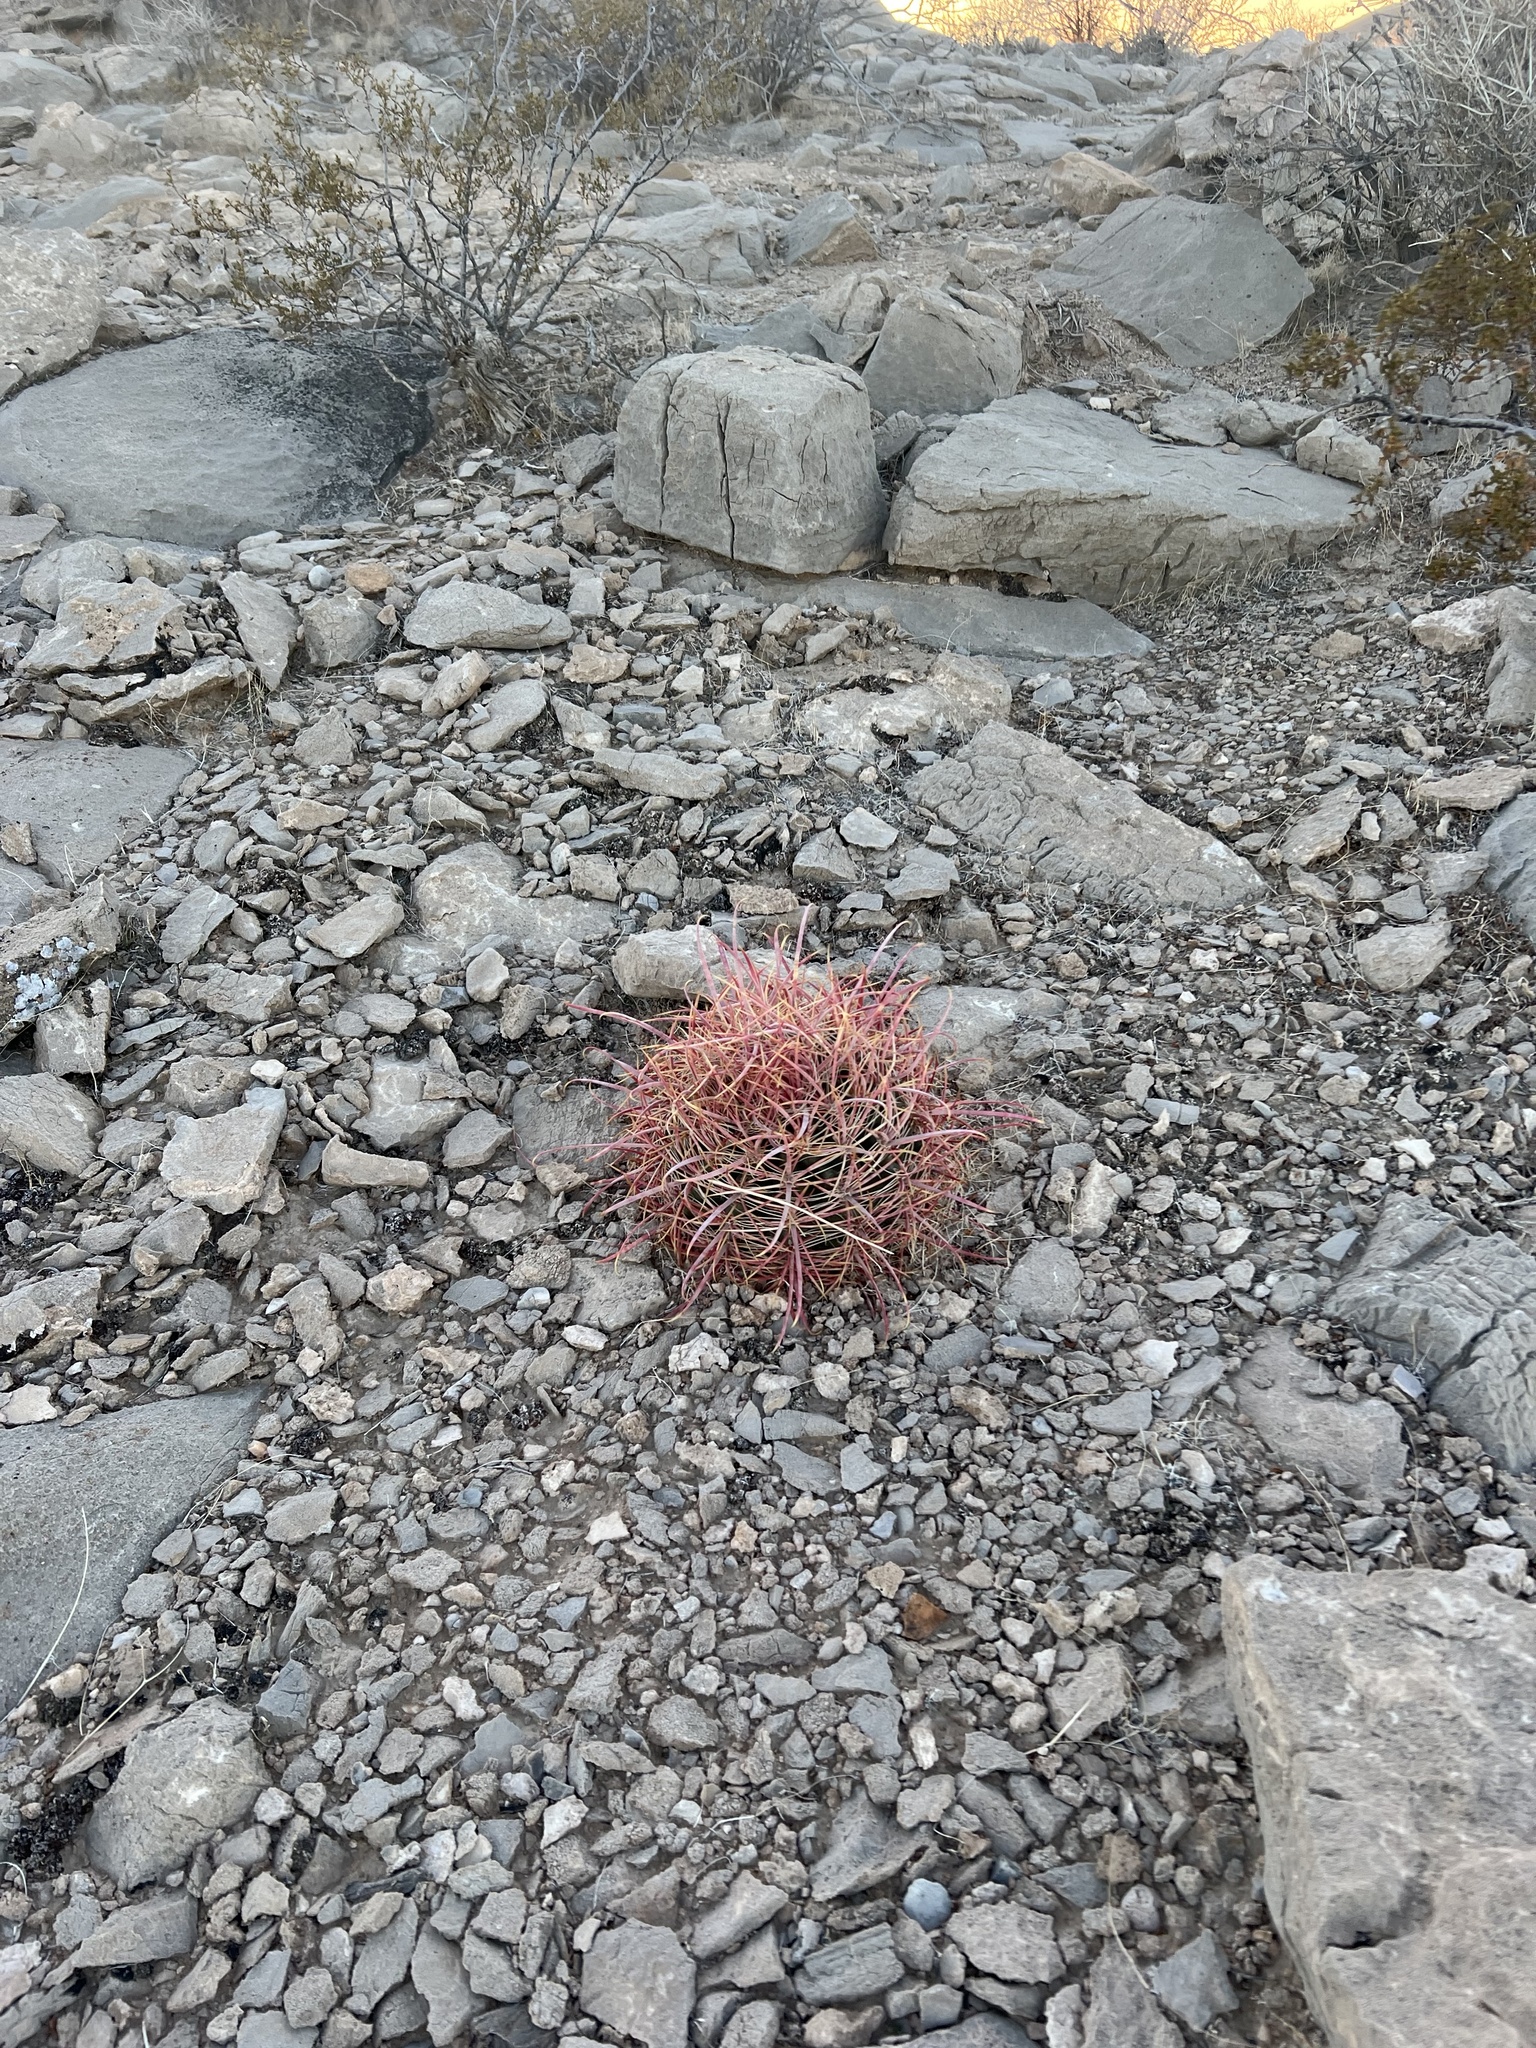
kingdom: Plantae
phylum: Tracheophyta
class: Magnoliopsida
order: Caryophyllales
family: Cactaceae
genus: Ferocactus
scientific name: Ferocactus cylindraceus
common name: California barrel cactus
